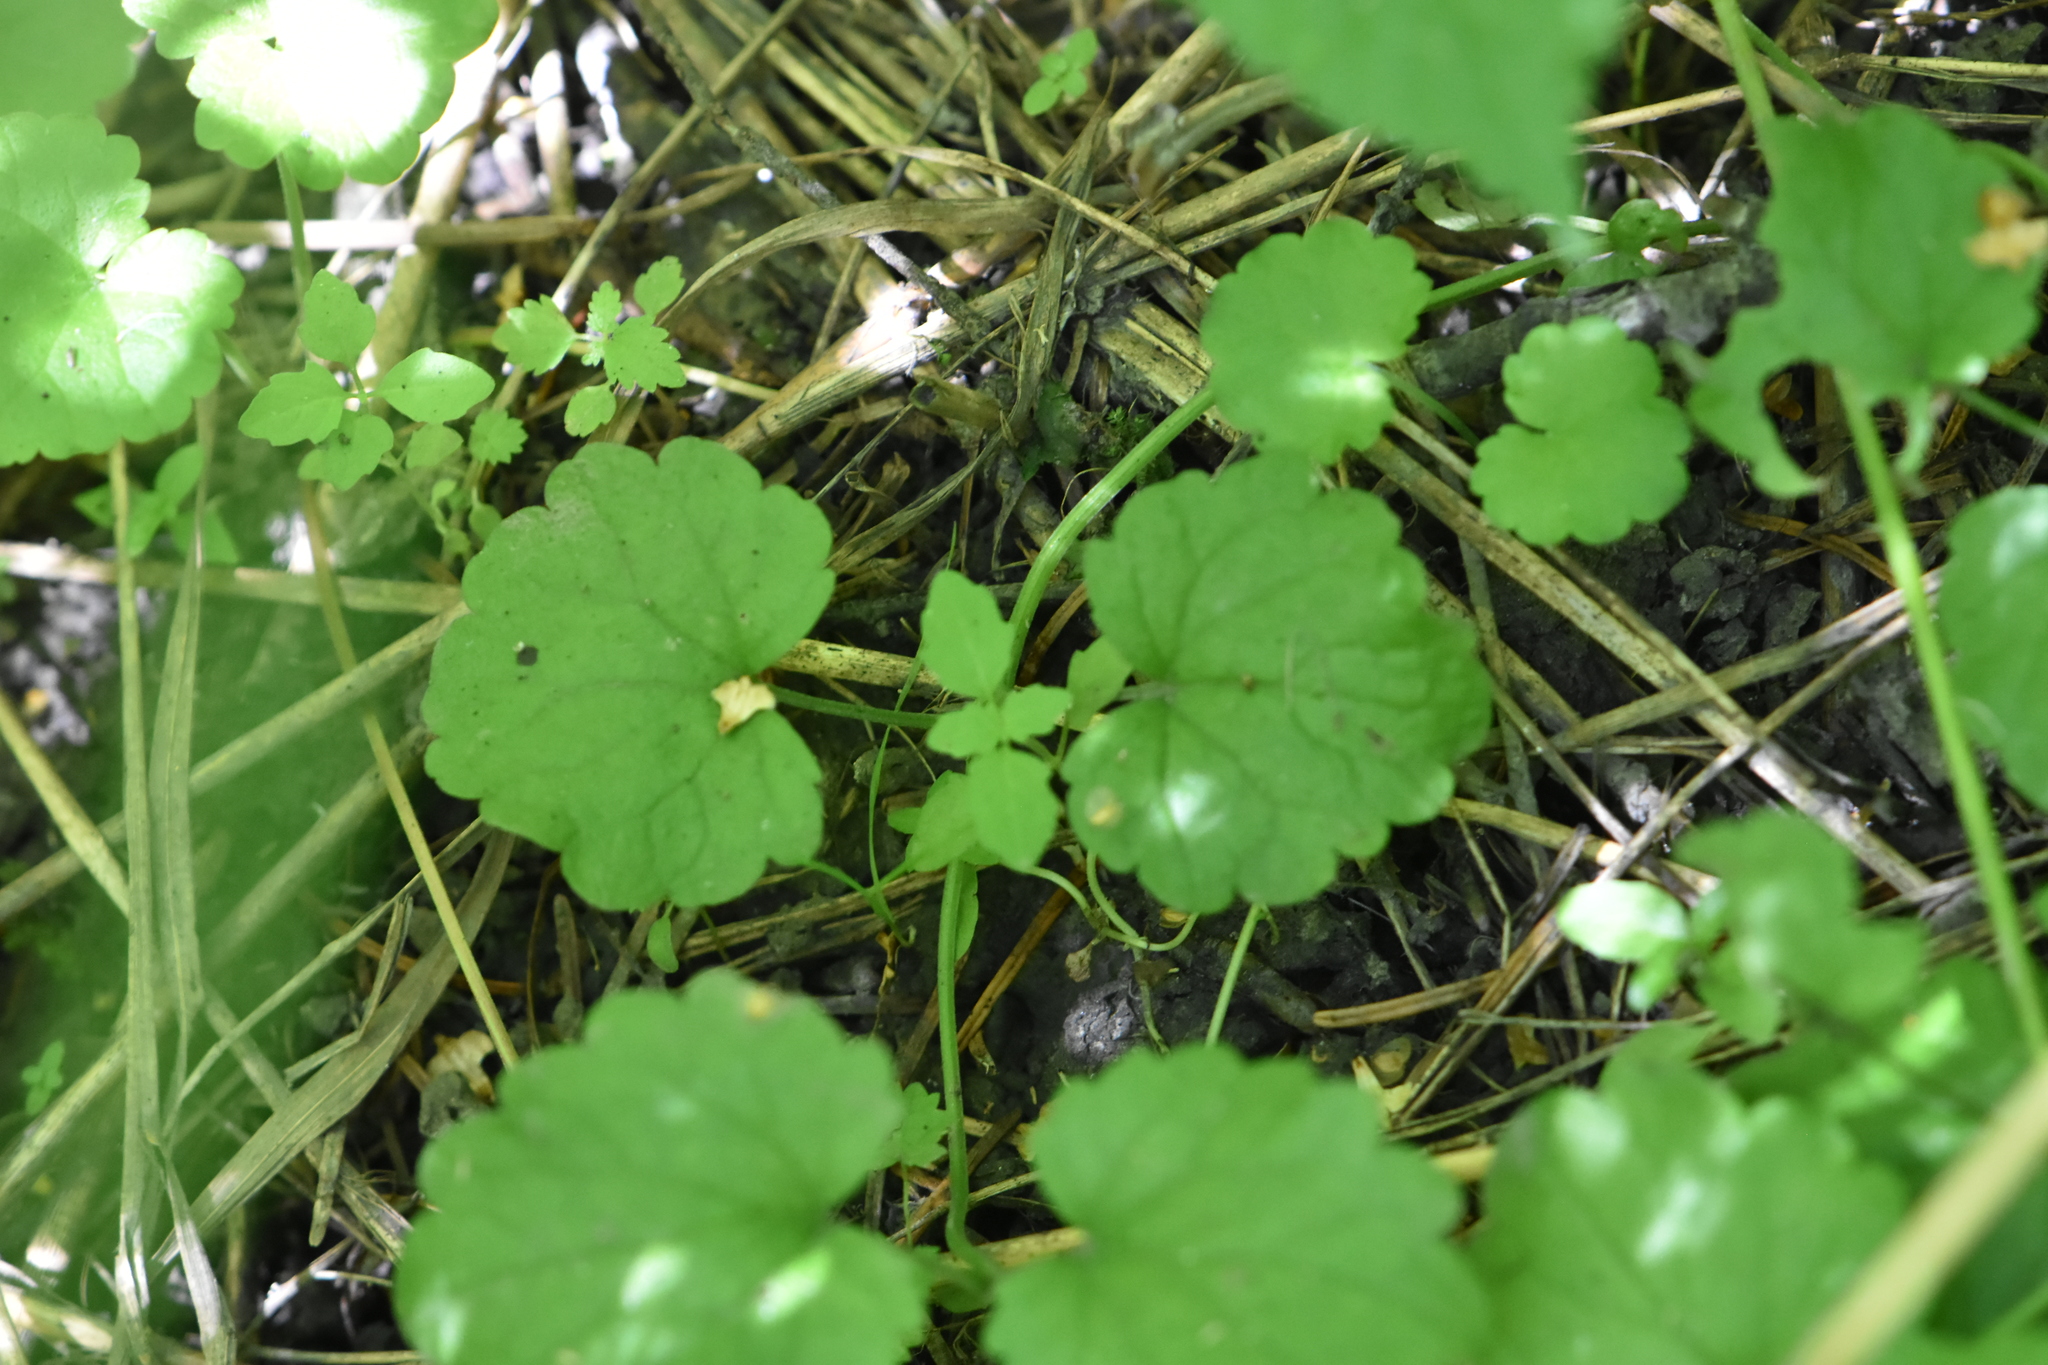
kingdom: Plantae
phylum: Tracheophyta
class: Magnoliopsida
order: Lamiales
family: Lamiaceae
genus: Glechoma
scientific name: Glechoma hederacea
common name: Ground ivy
